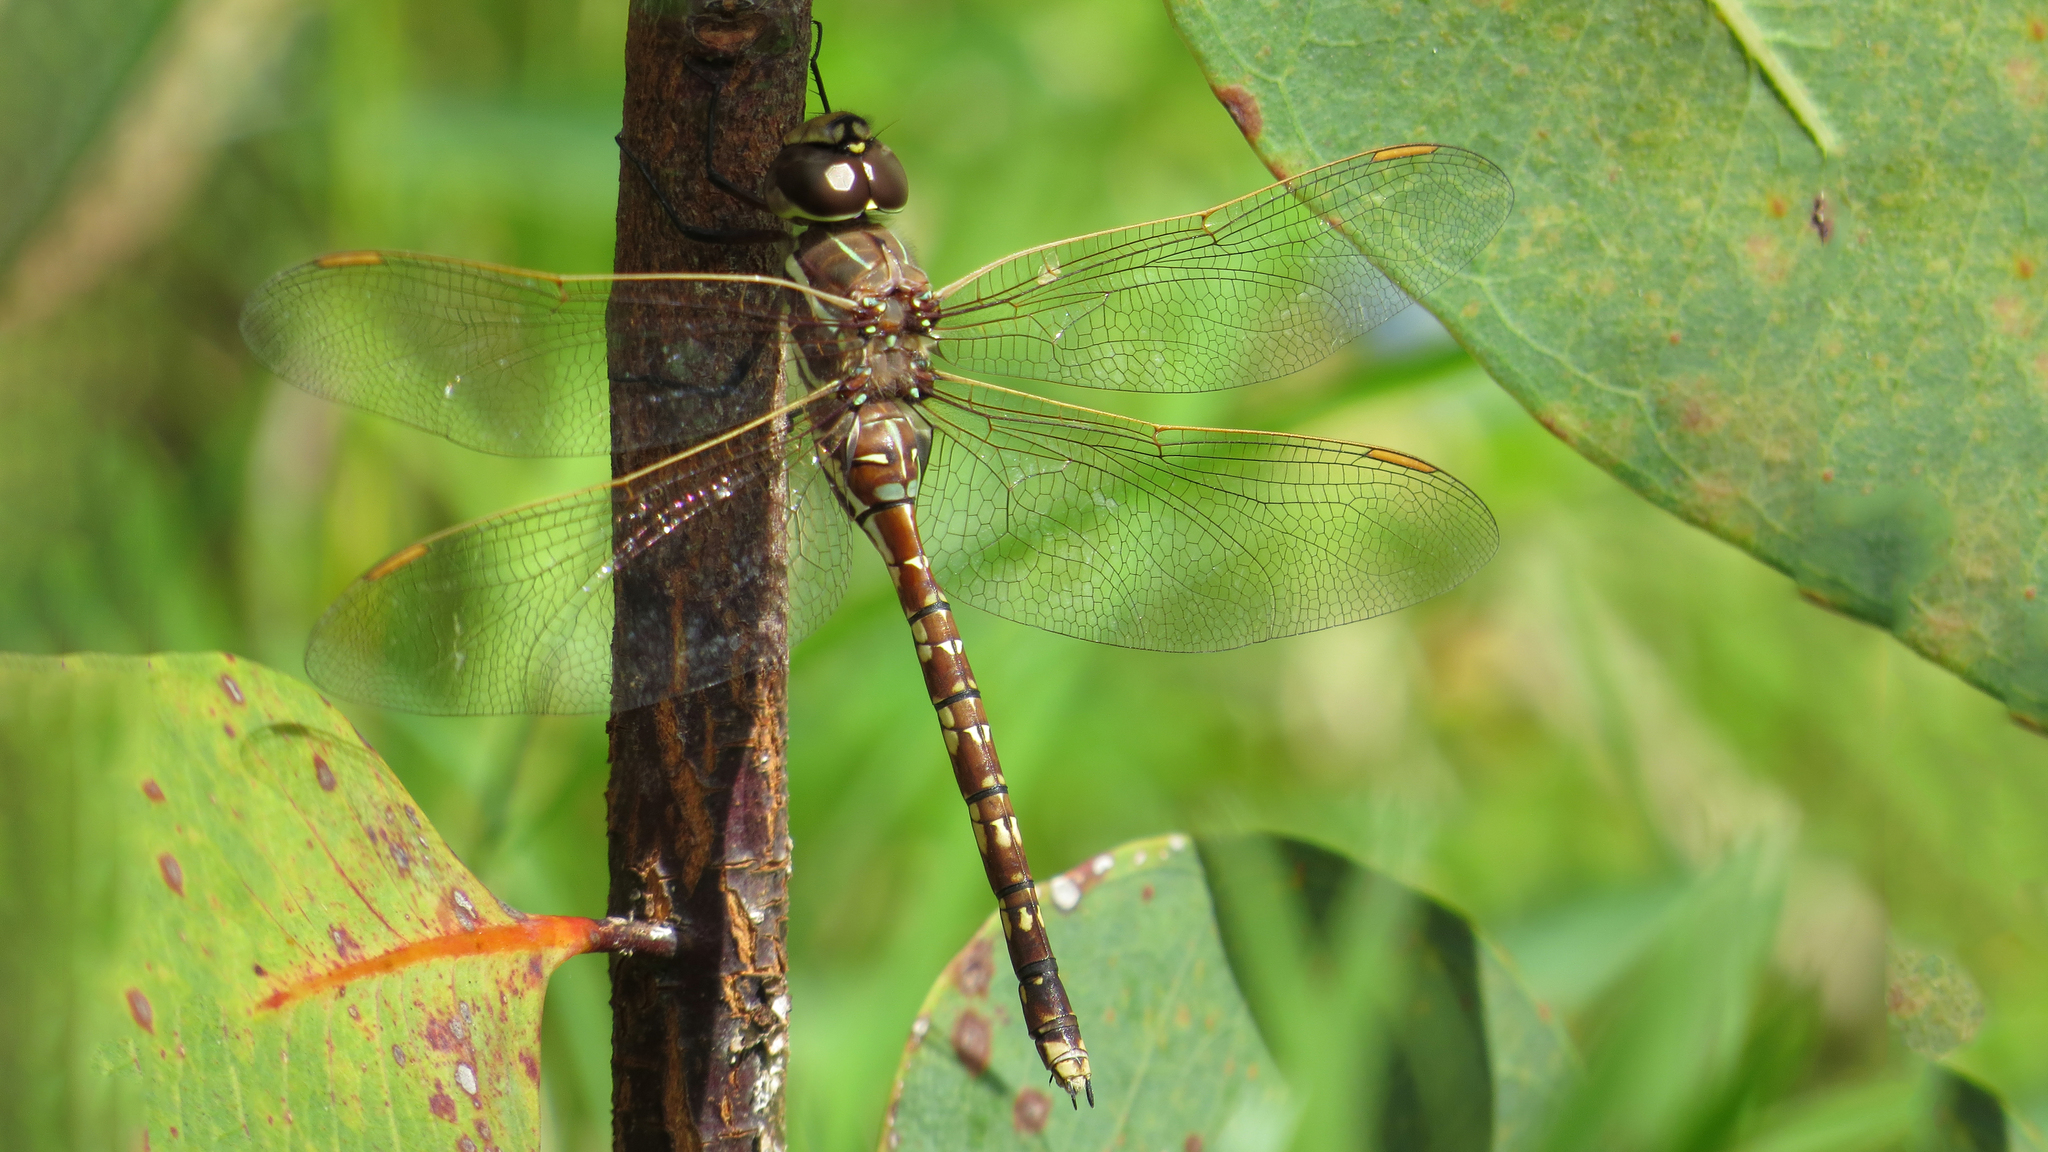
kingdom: Animalia
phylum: Arthropoda
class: Insecta
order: Odonata
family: Aeshnidae
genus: Aeshna
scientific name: Aeshna brevistyla
